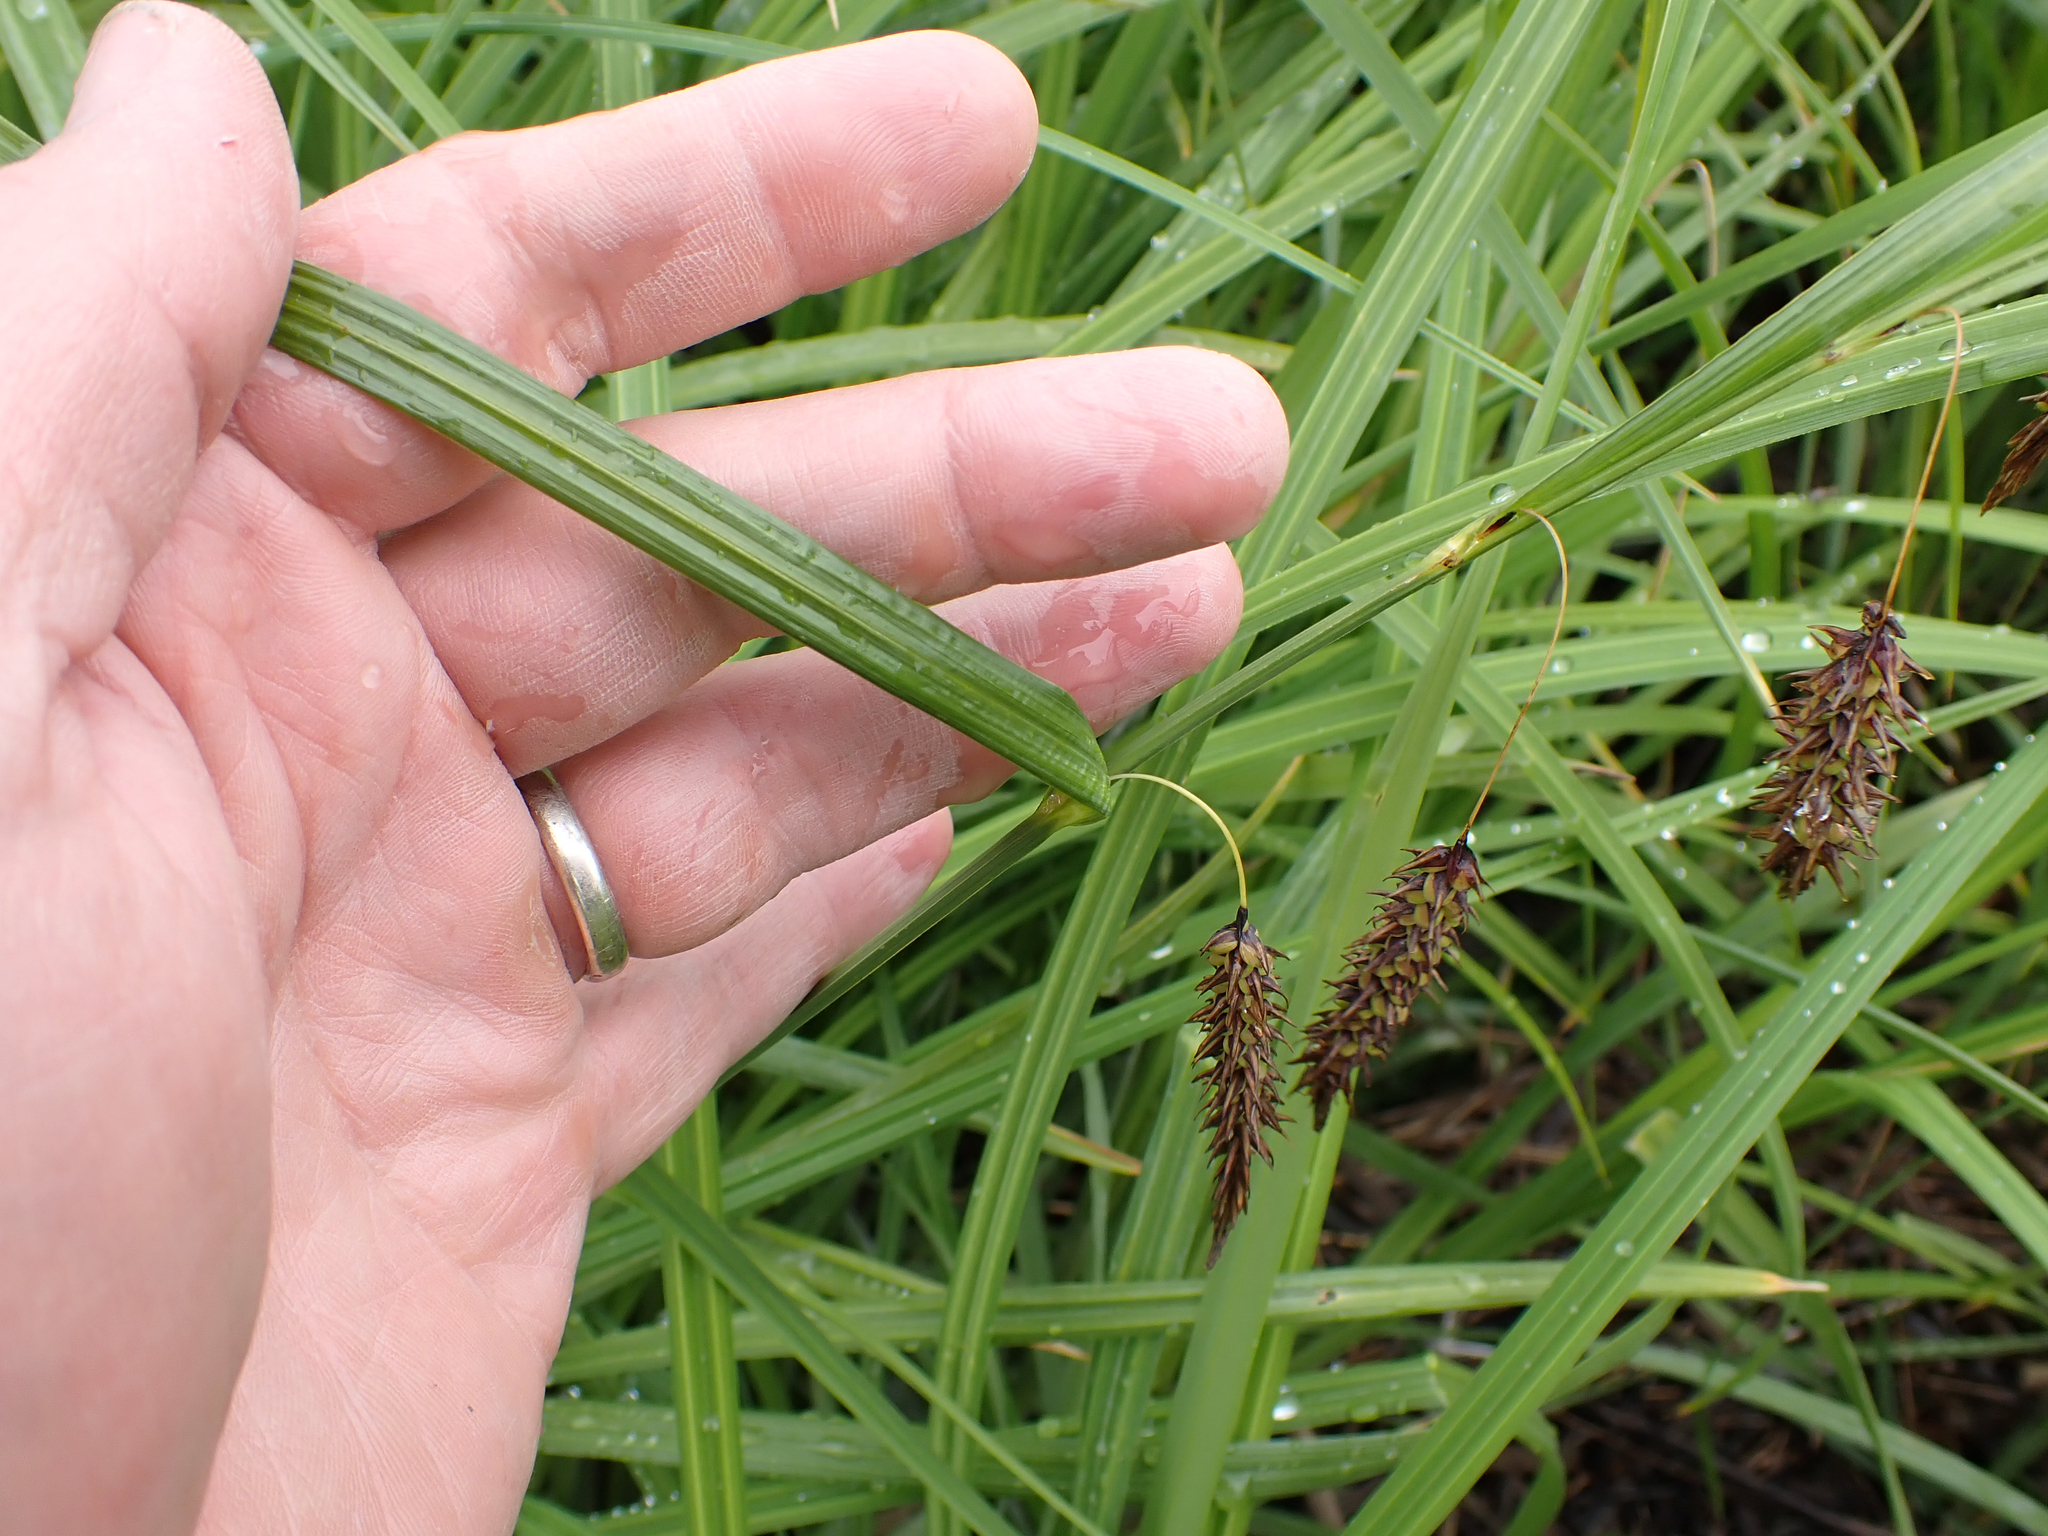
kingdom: Plantae
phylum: Tracheophyta
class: Liliopsida
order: Poales
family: Cyperaceae
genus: Carex
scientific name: Carex lyngbyei
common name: Lyngbye's sedge
